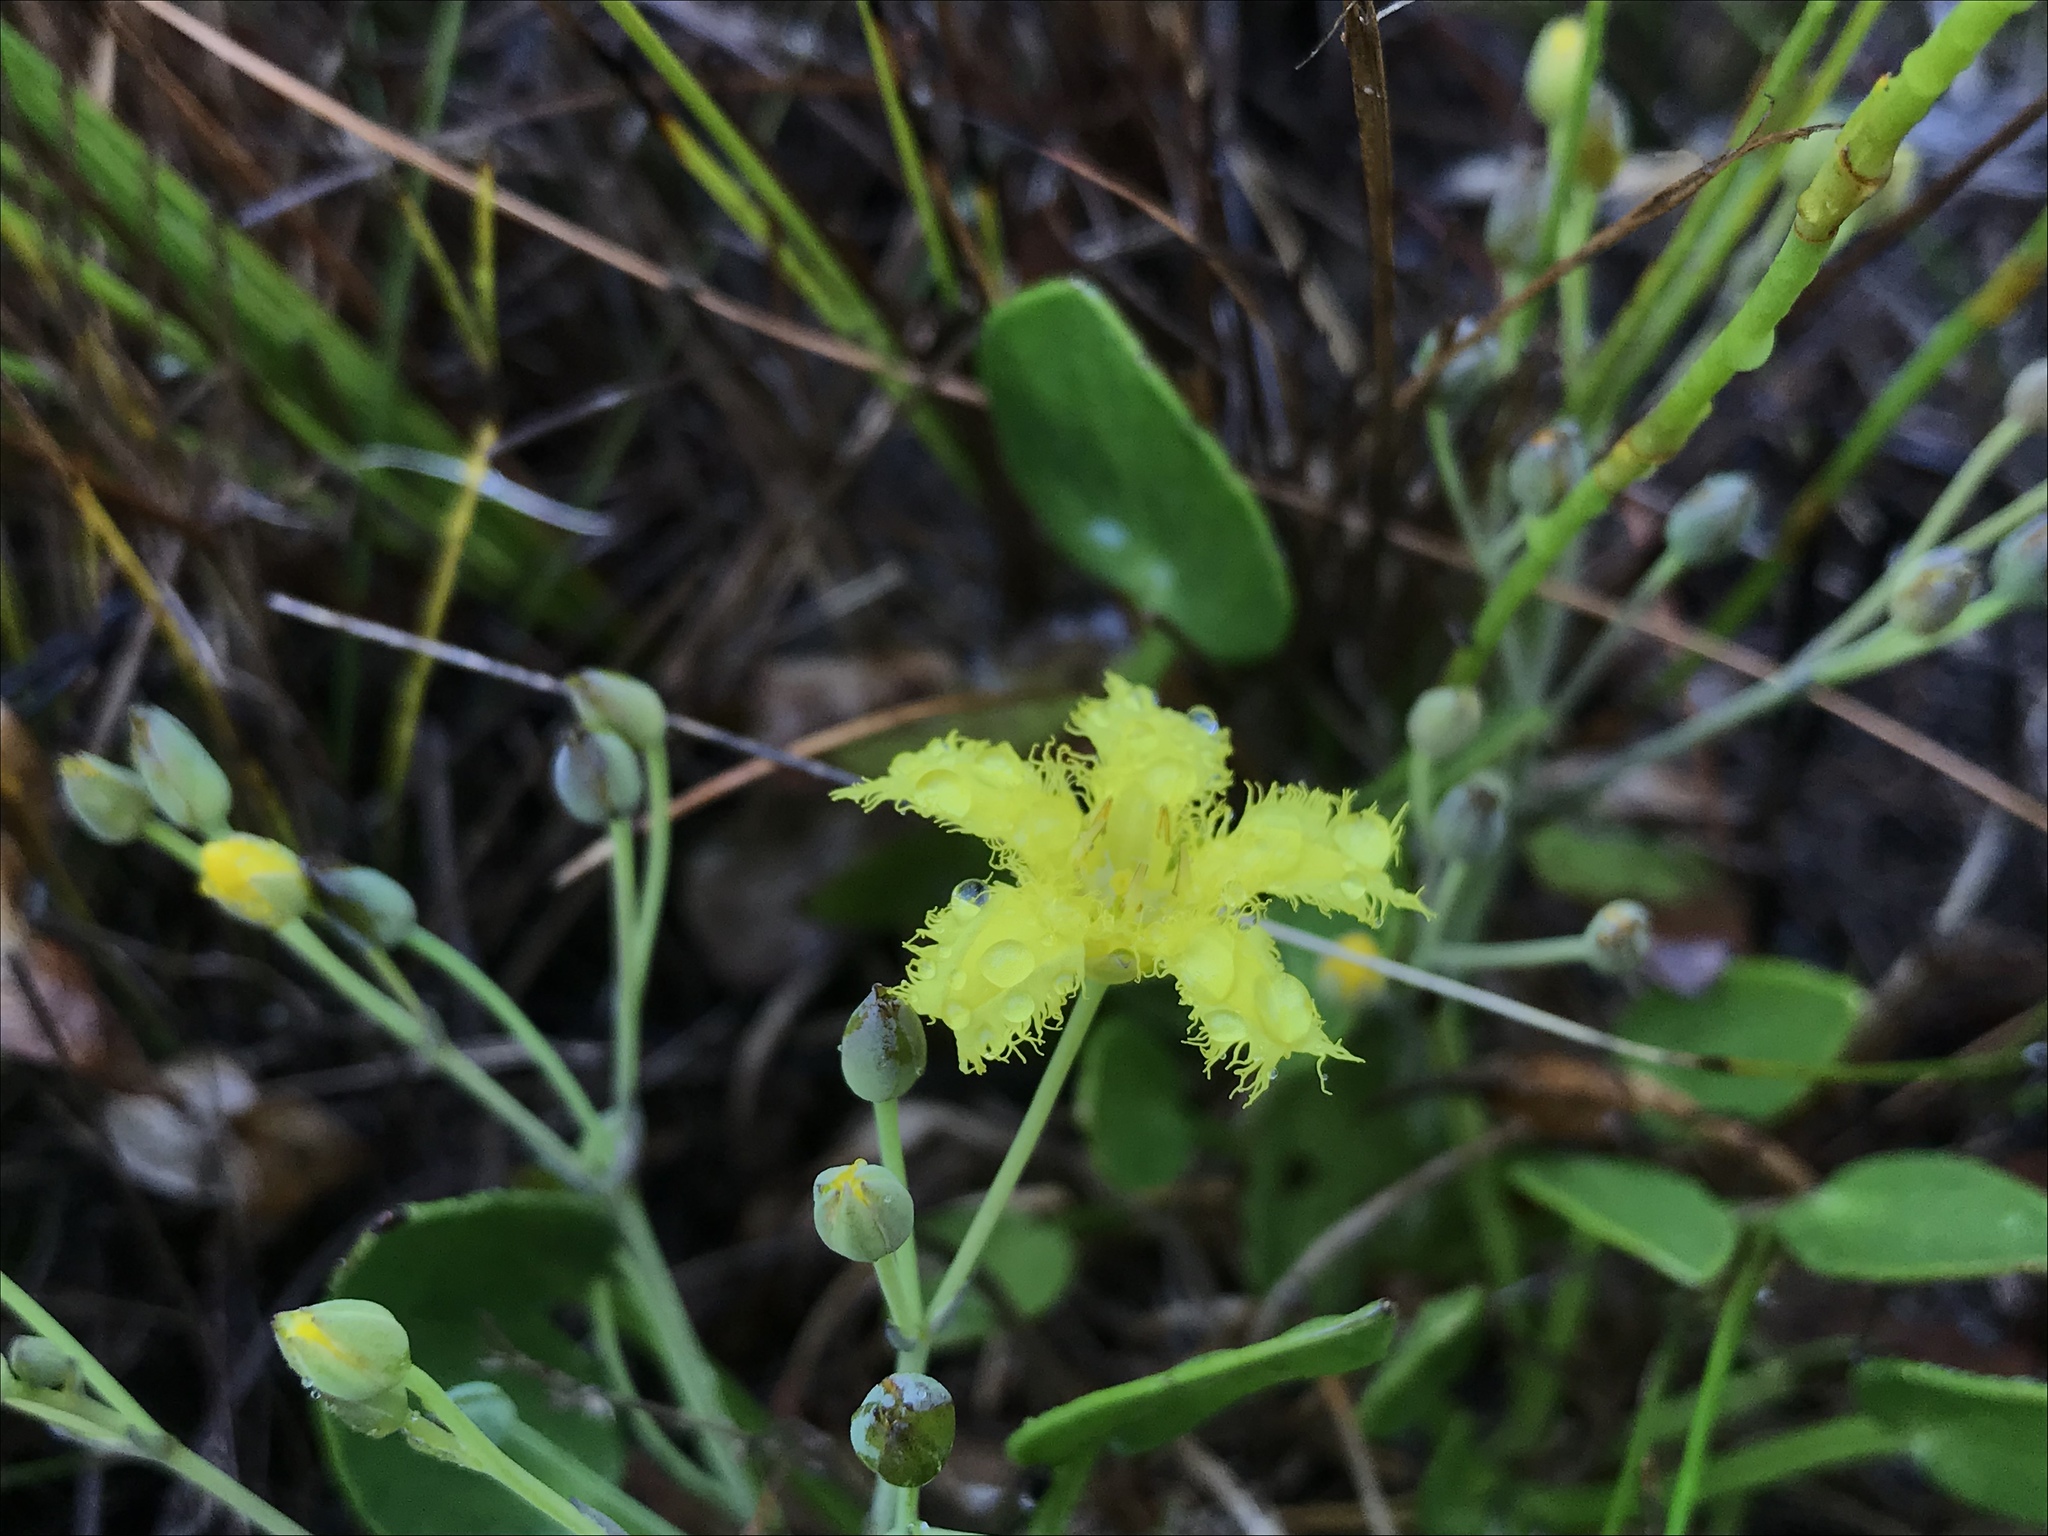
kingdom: Plantae
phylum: Tracheophyta
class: Magnoliopsida
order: Asterales
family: Menyanthaceae
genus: Villarsia
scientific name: Villarsia manningiana
